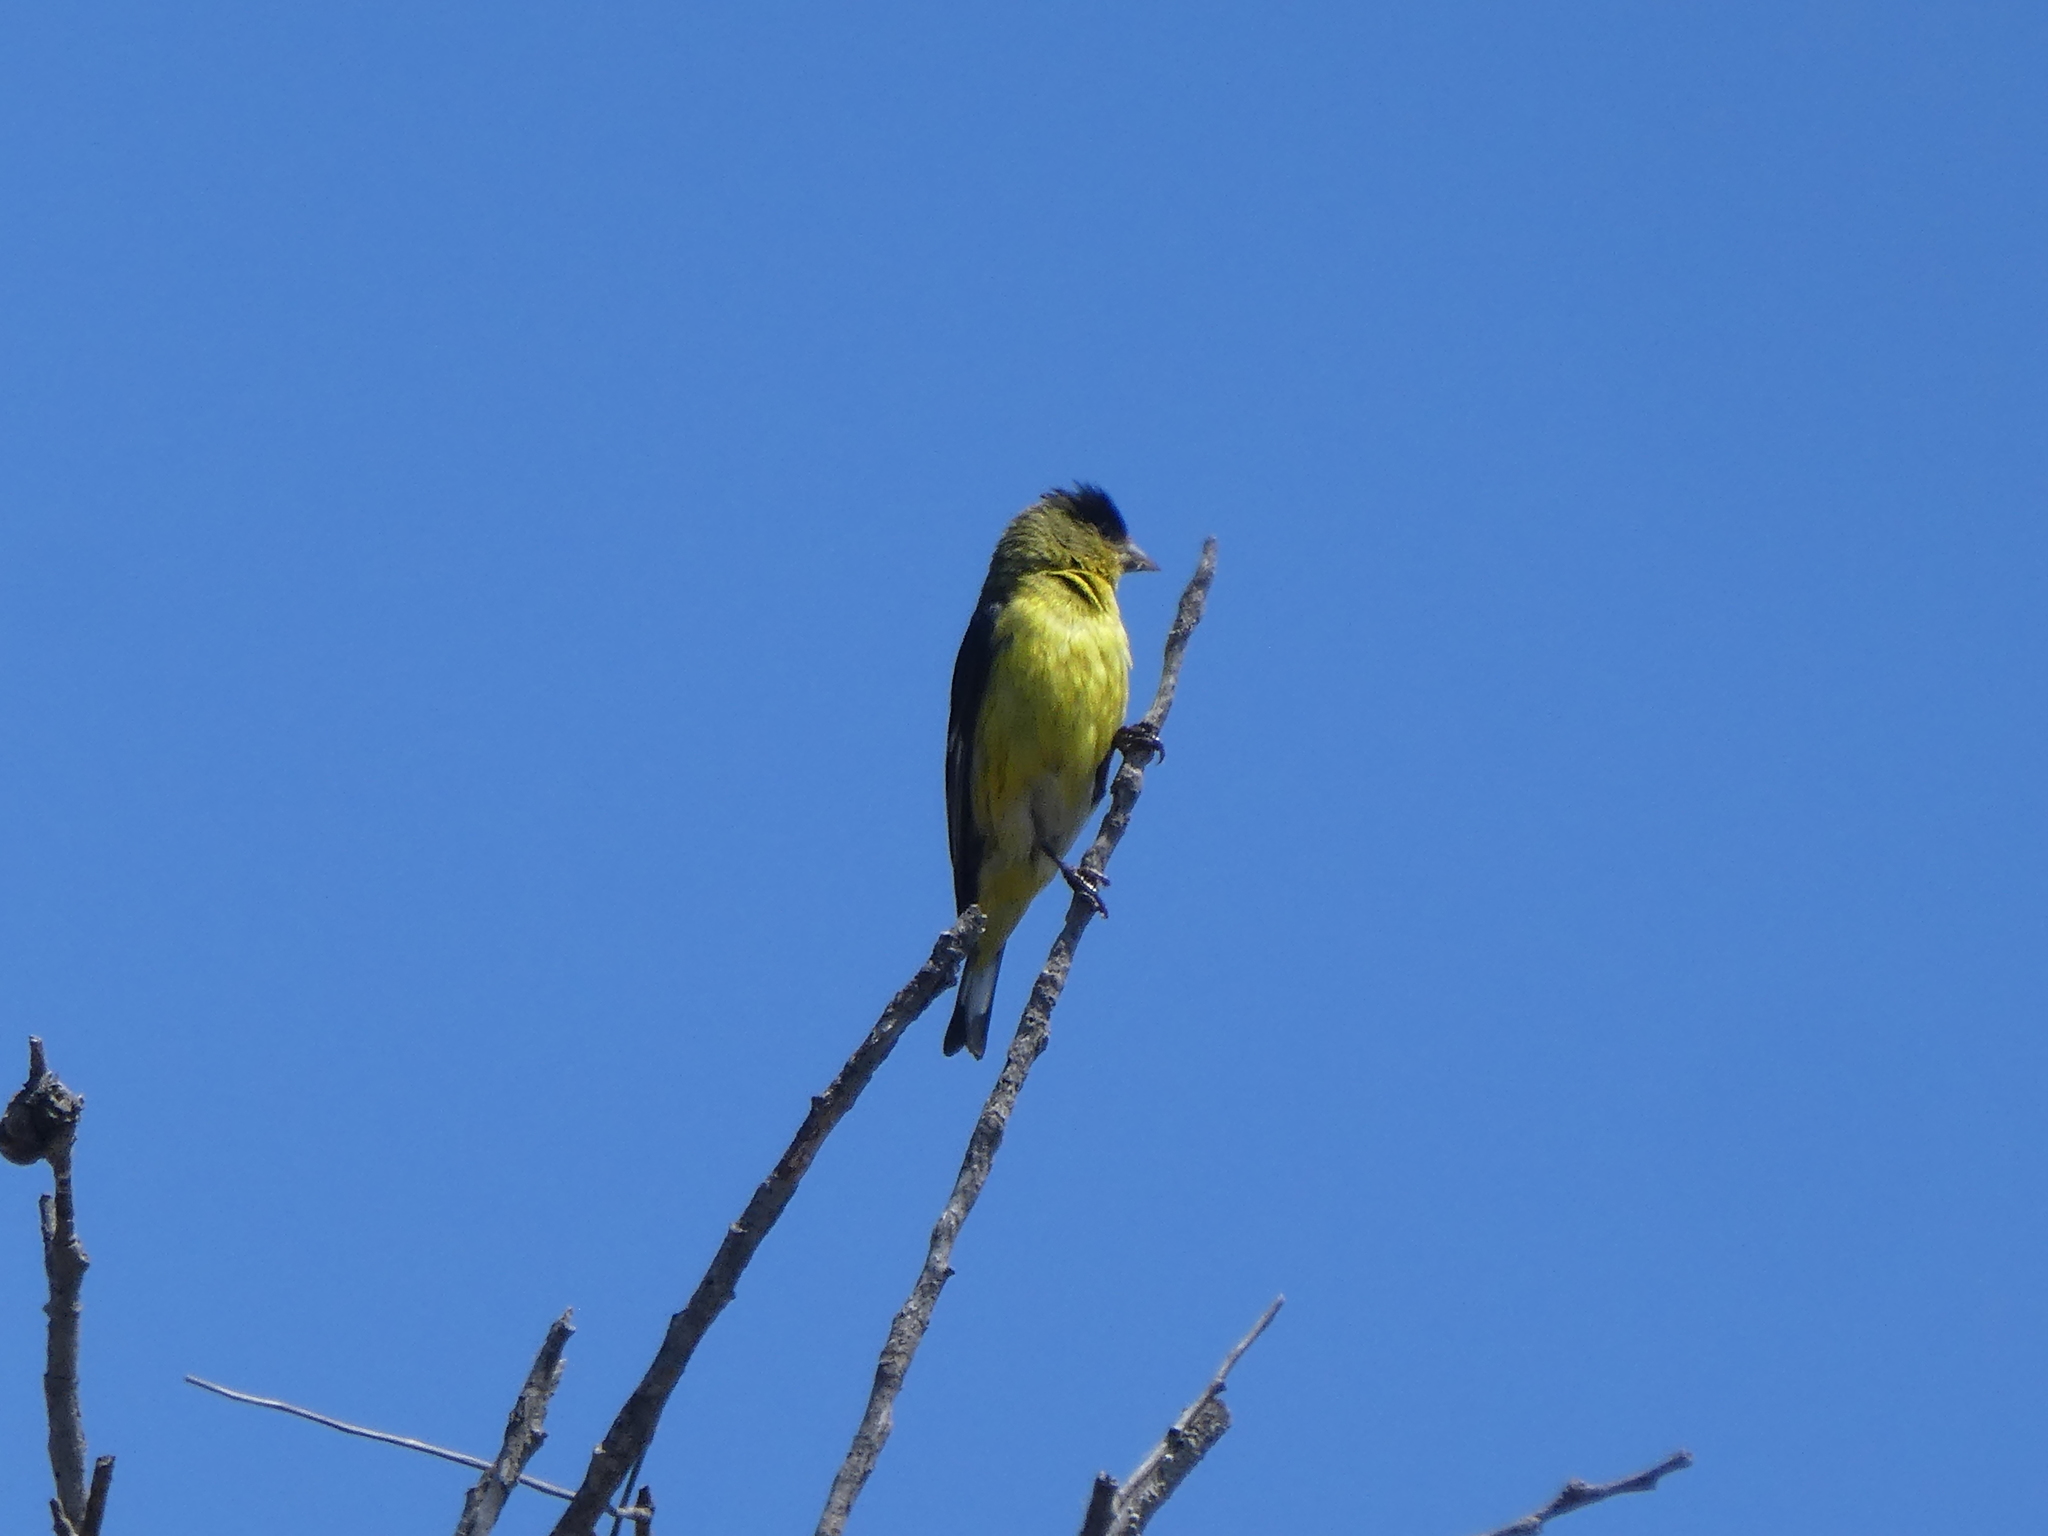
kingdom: Animalia
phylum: Chordata
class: Aves
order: Passeriformes
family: Fringillidae
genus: Spinus
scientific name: Spinus psaltria
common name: Lesser goldfinch
